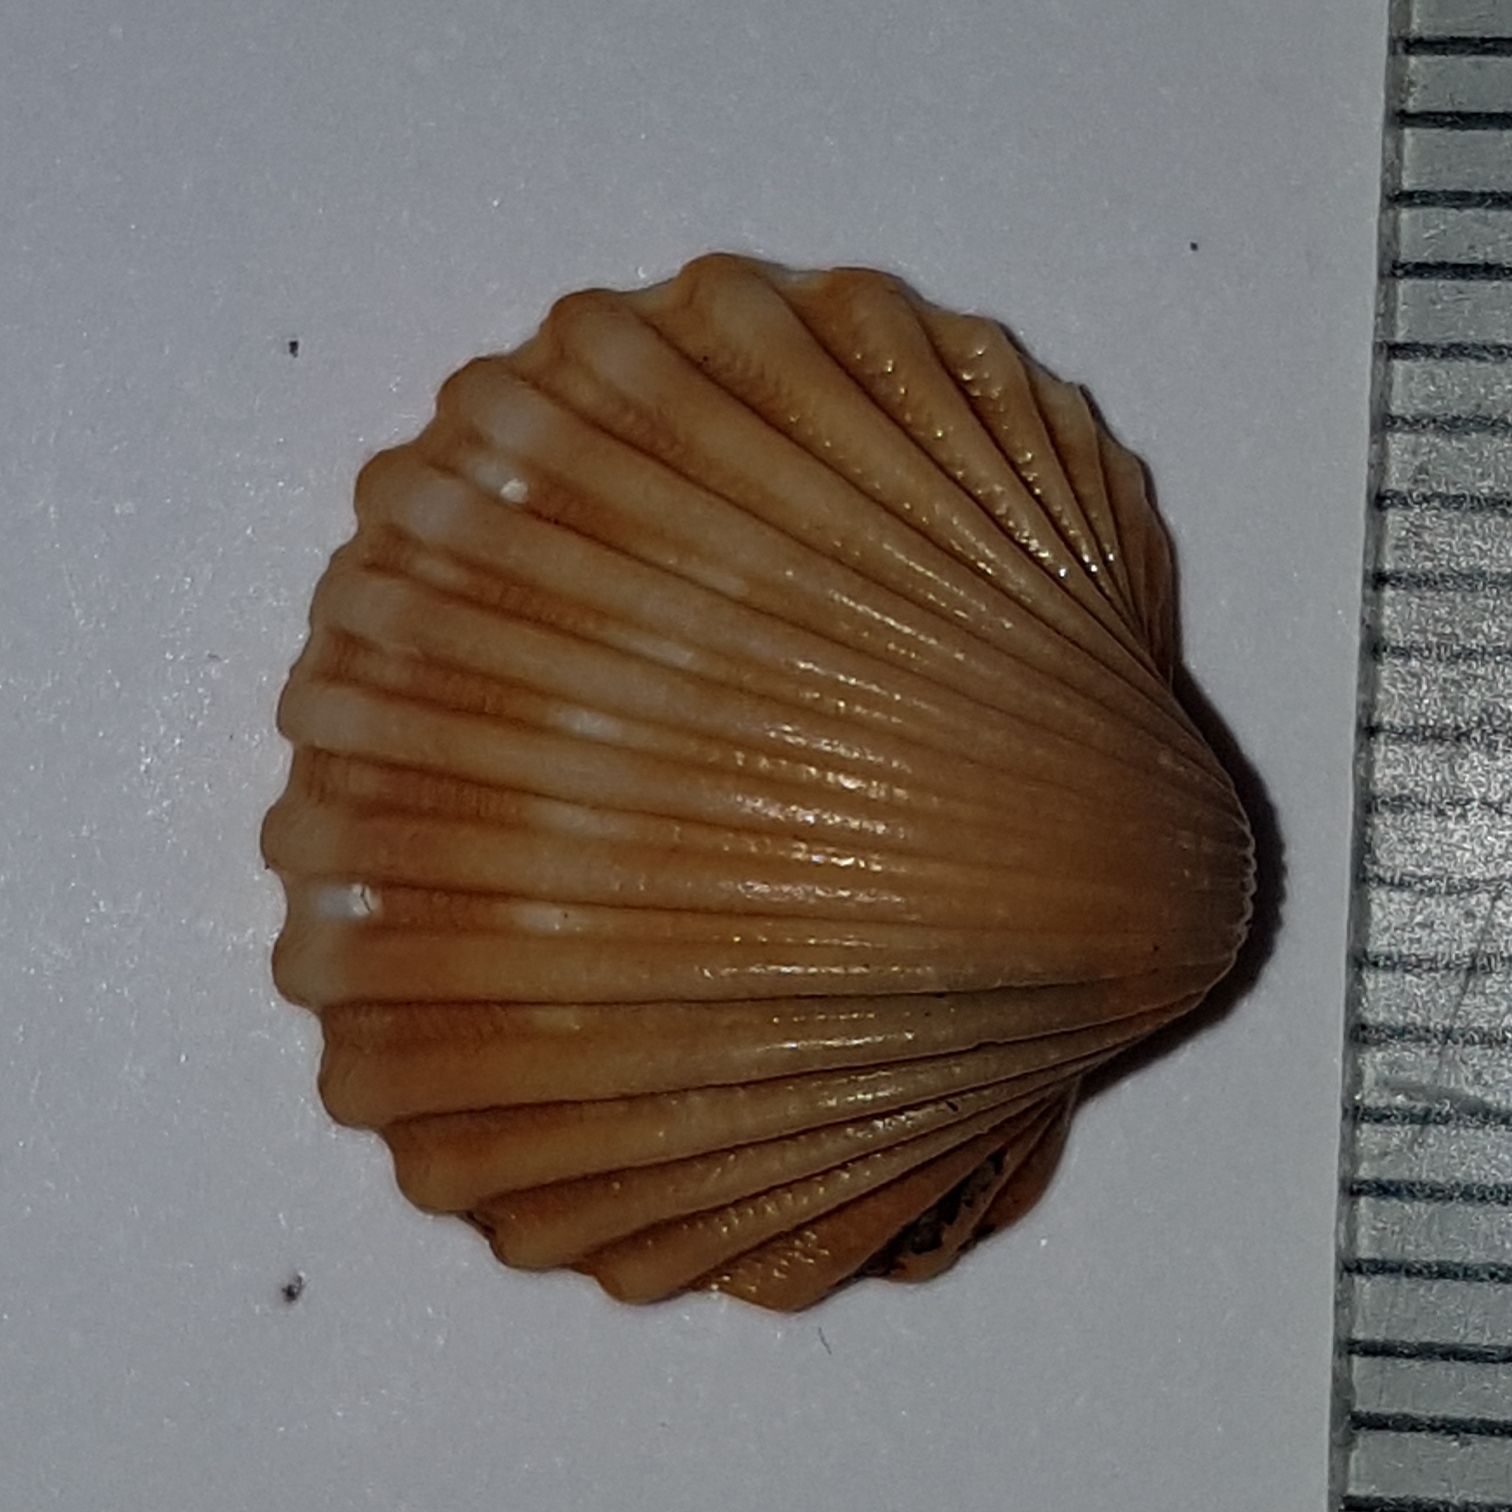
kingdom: Animalia
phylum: Mollusca
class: Bivalvia
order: Cardiida
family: Cardiidae
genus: Acanthocardia
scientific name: Acanthocardia tuberculata
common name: Rough cockle
